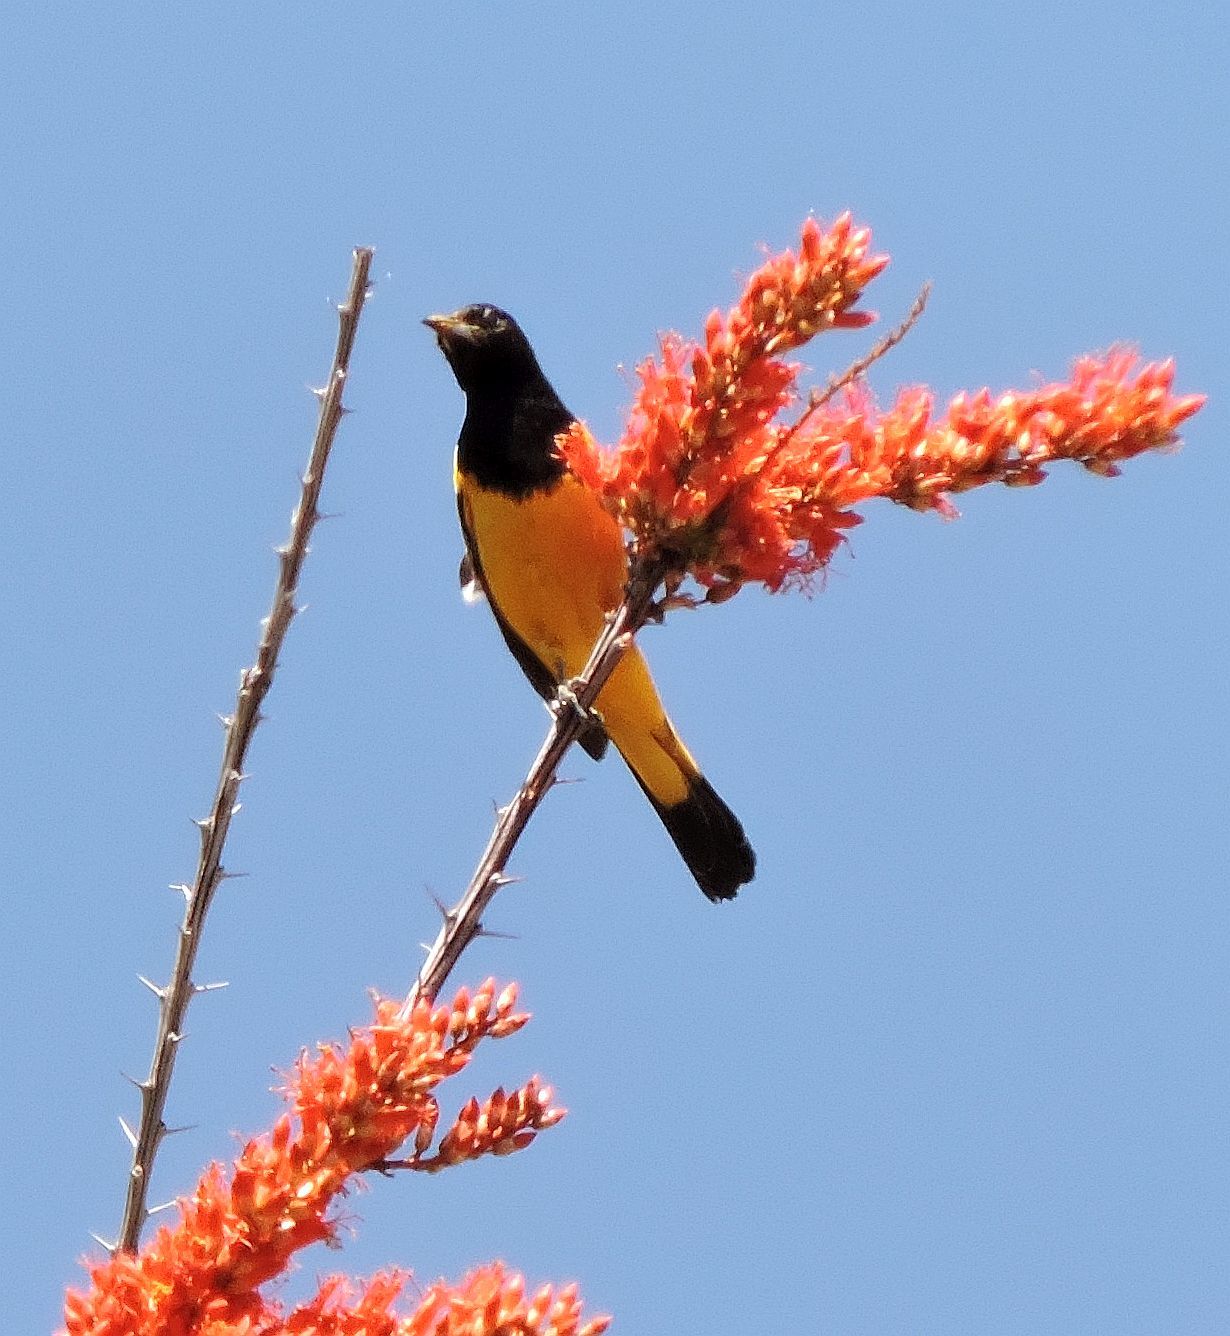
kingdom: Plantae
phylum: Tracheophyta
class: Magnoliopsida
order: Ericales
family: Fouquieriaceae
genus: Fouquieria
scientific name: Fouquieria splendens
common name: Vine-cactus
